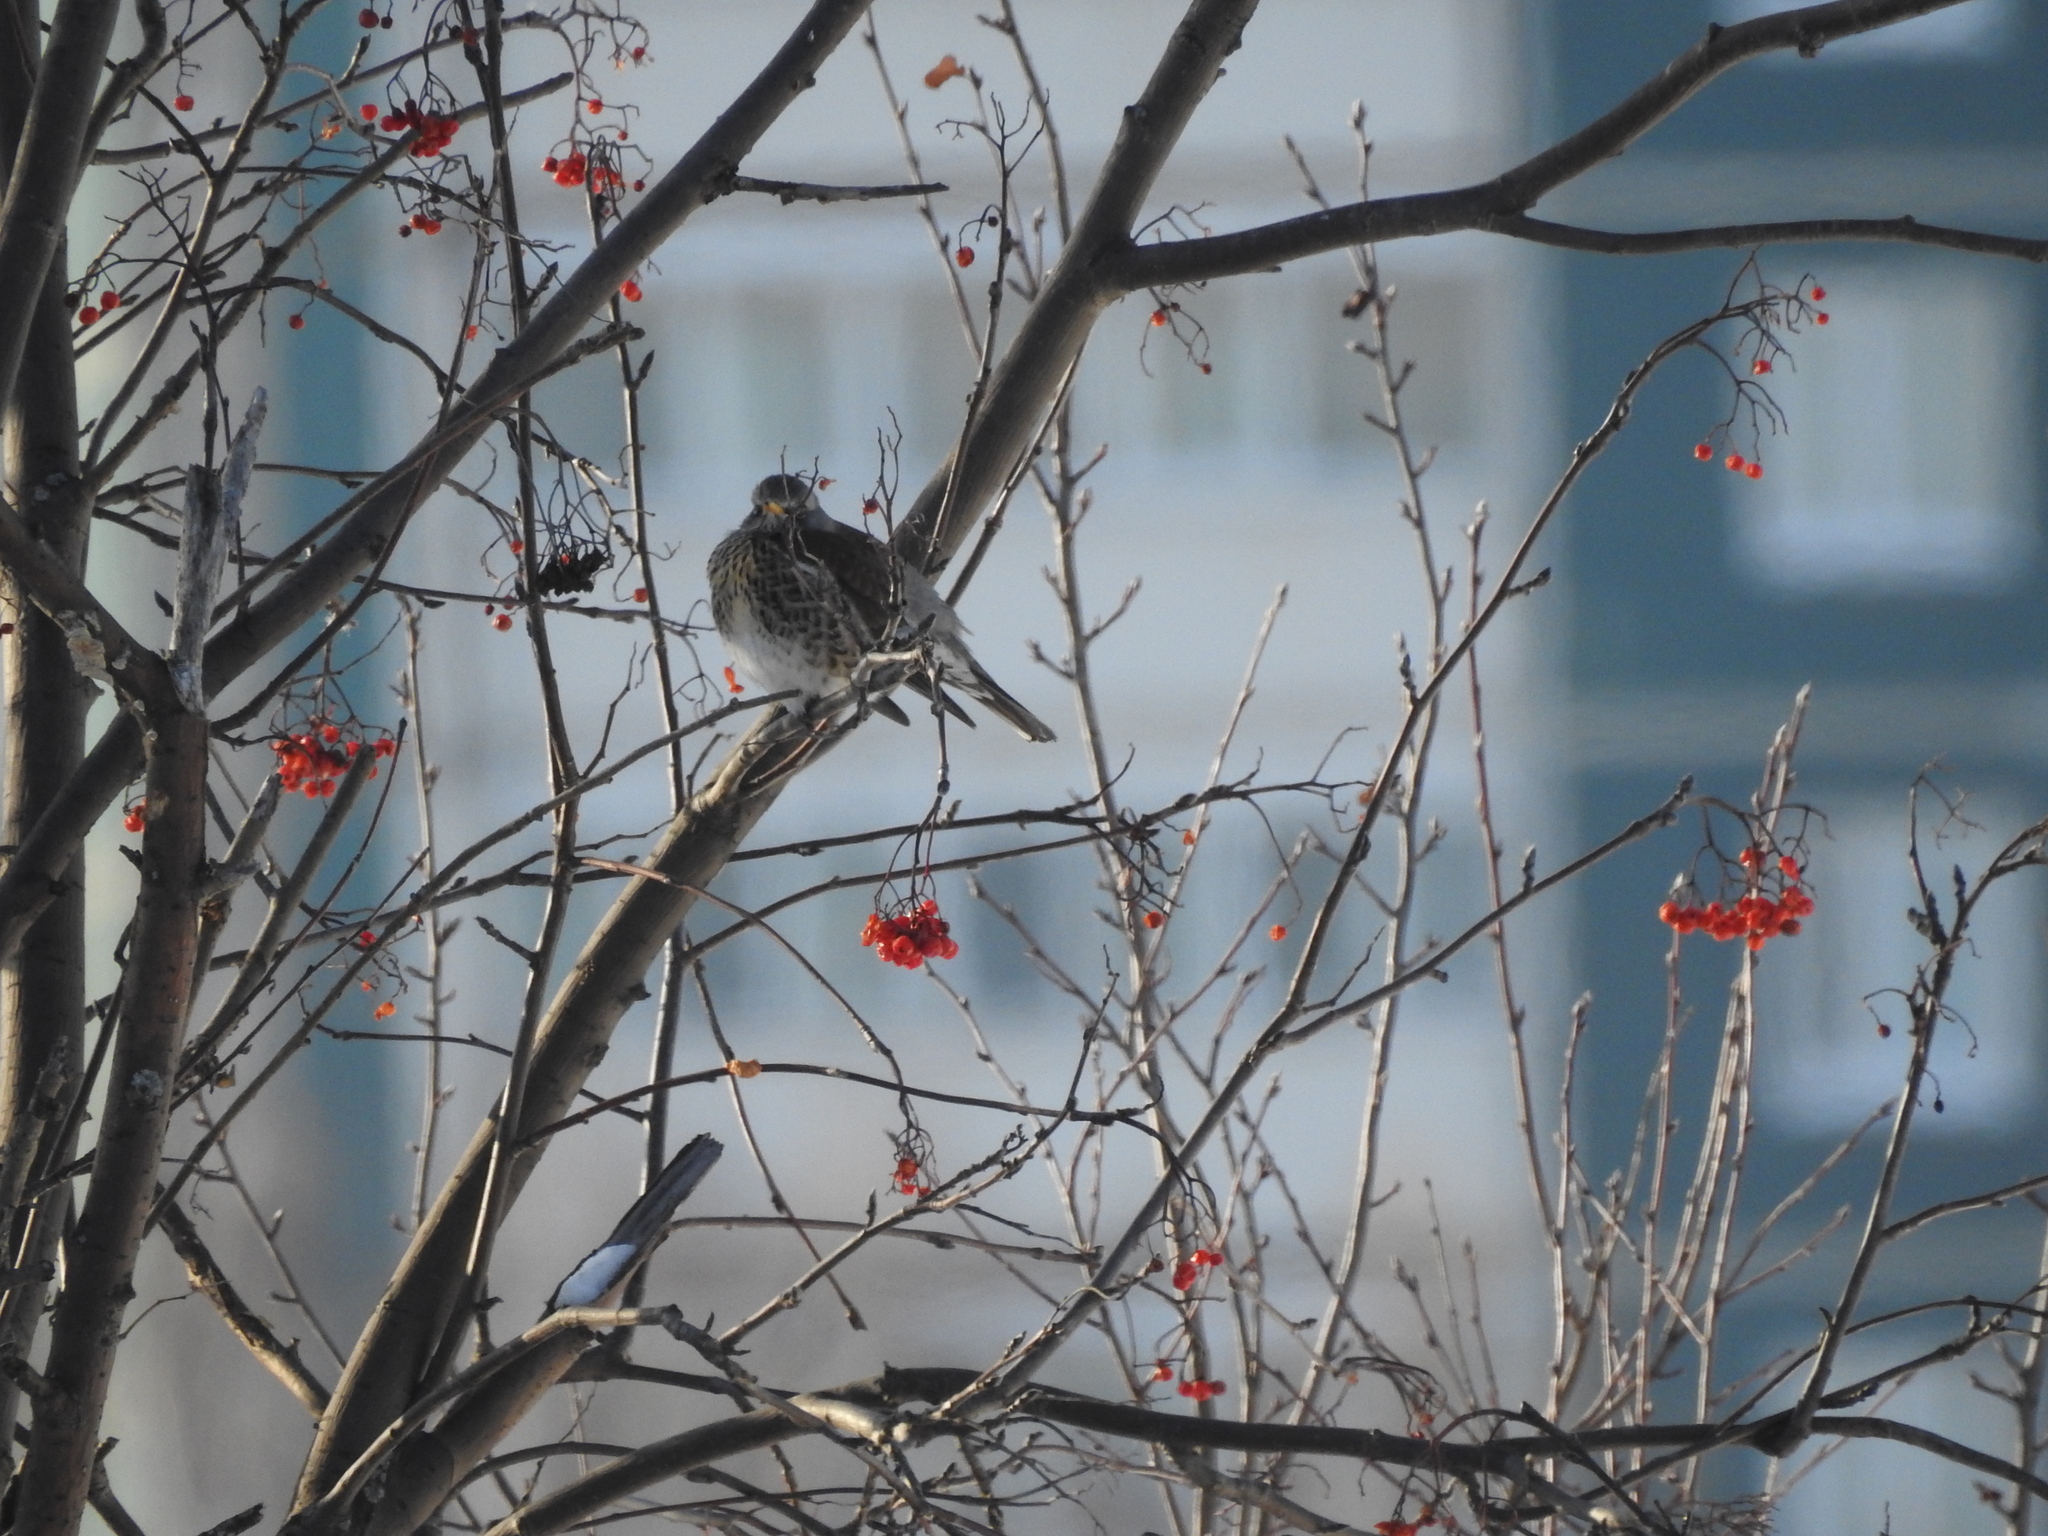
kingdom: Animalia
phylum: Chordata
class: Aves
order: Passeriformes
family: Turdidae
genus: Turdus
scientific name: Turdus pilaris
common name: Fieldfare
